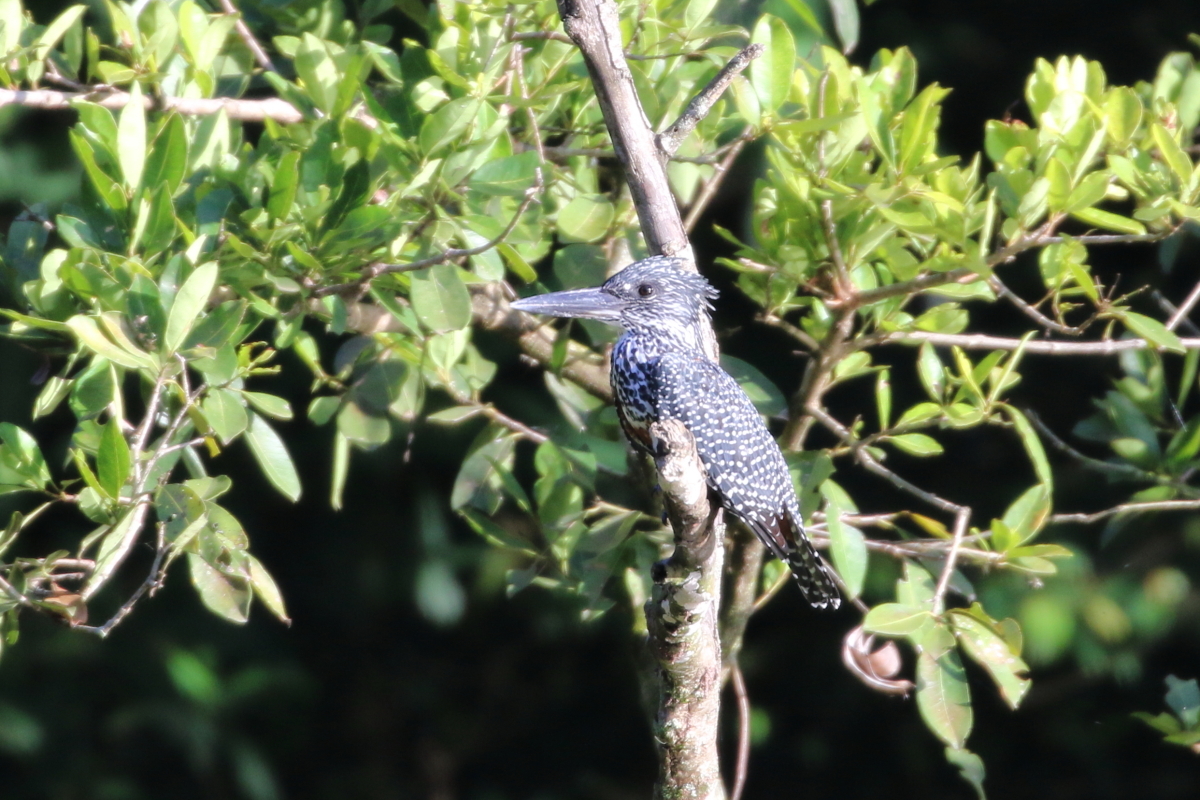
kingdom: Animalia
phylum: Chordata
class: Aves
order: Coraciiformes
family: Alcedinidae
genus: Megaceryle
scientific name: Megaceryle maxima
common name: Giant kingfisher
